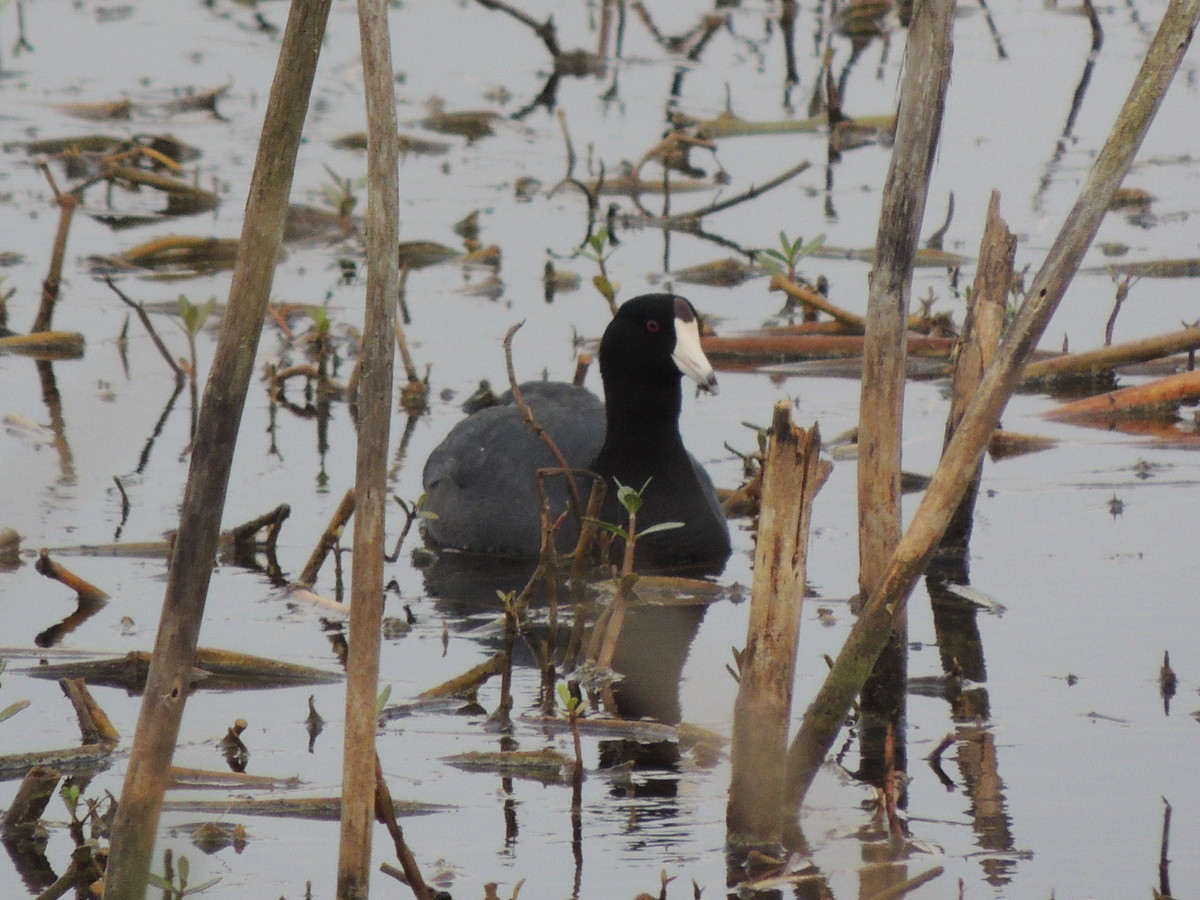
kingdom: Animalia
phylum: Chordata
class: Aves
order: Gruiformes
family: Rallidae
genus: Fulica
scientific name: Fulica americana
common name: American coot
